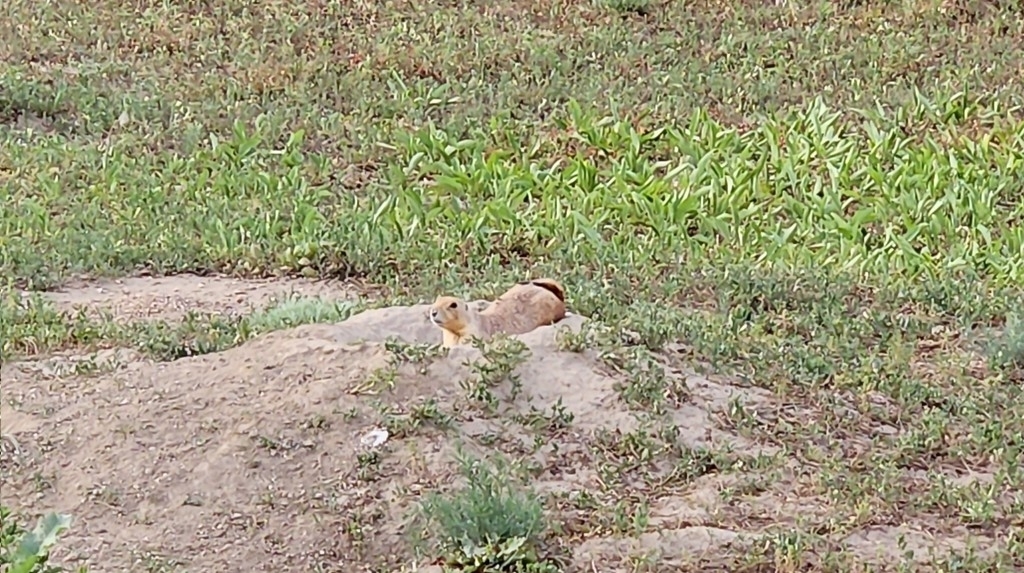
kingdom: Animalia
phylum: Chordata
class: Mammalia
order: Rodentia
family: Sciuridae
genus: Cynomys
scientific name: Cynomys ludovicianus
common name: Black-tailed prairie dog
